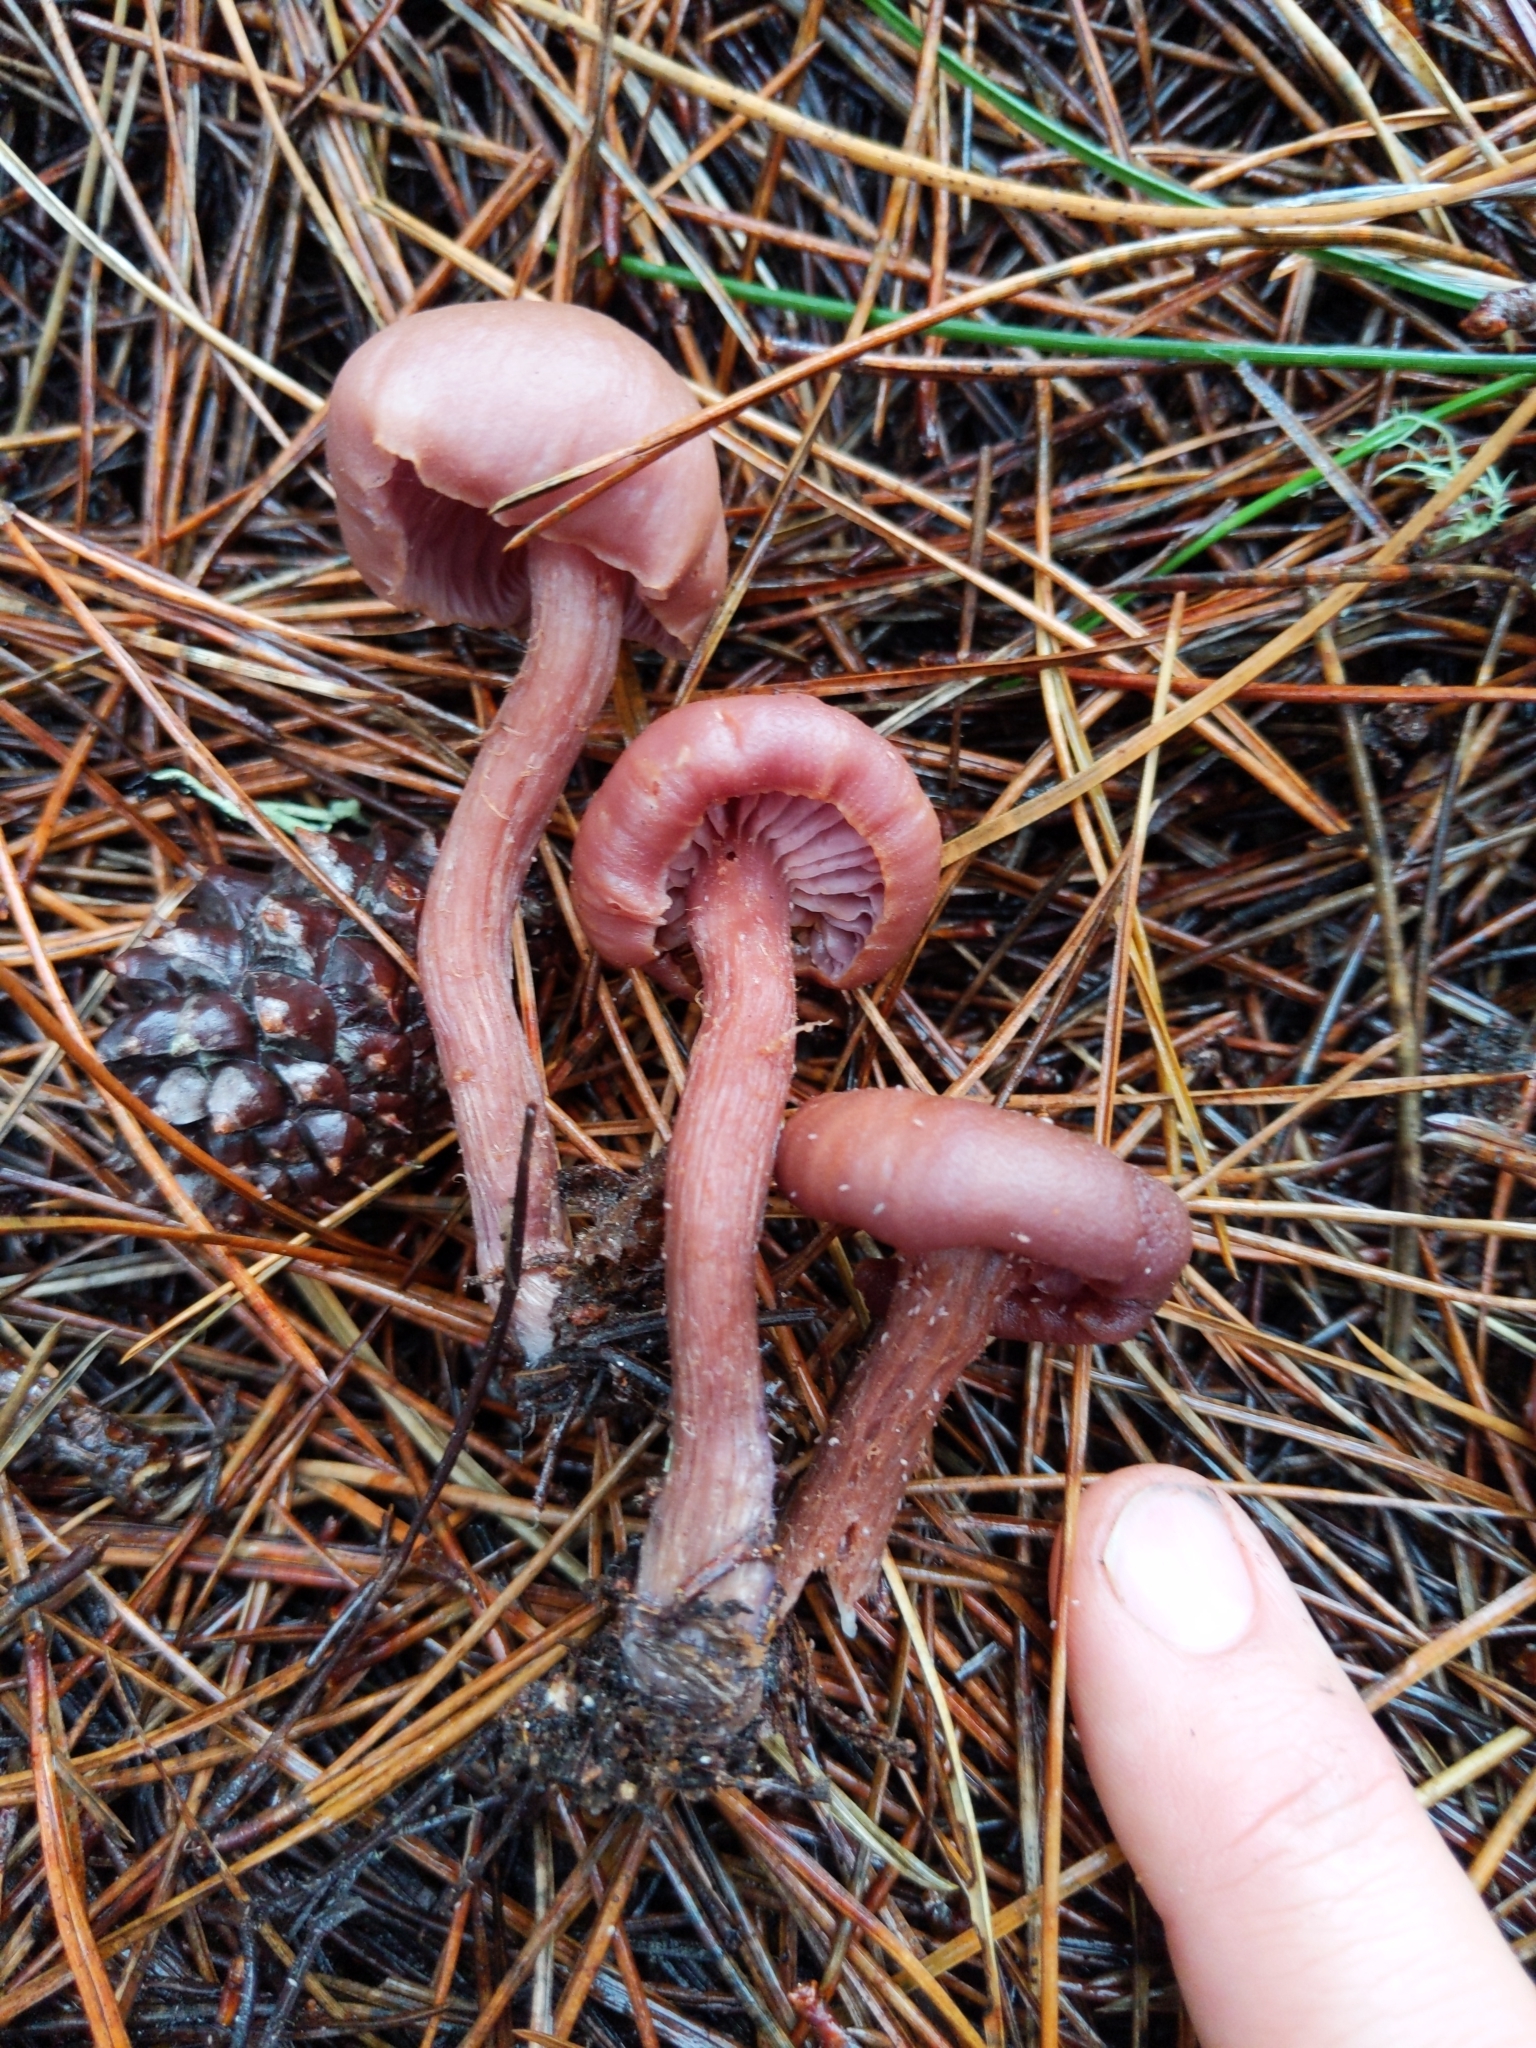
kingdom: Fungi
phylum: Basidiomycota
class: Agaricomycetes
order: Agaricales
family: Hydnangiaceae
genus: Laccaria
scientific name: Laccaria amethysteo-occidentalis
